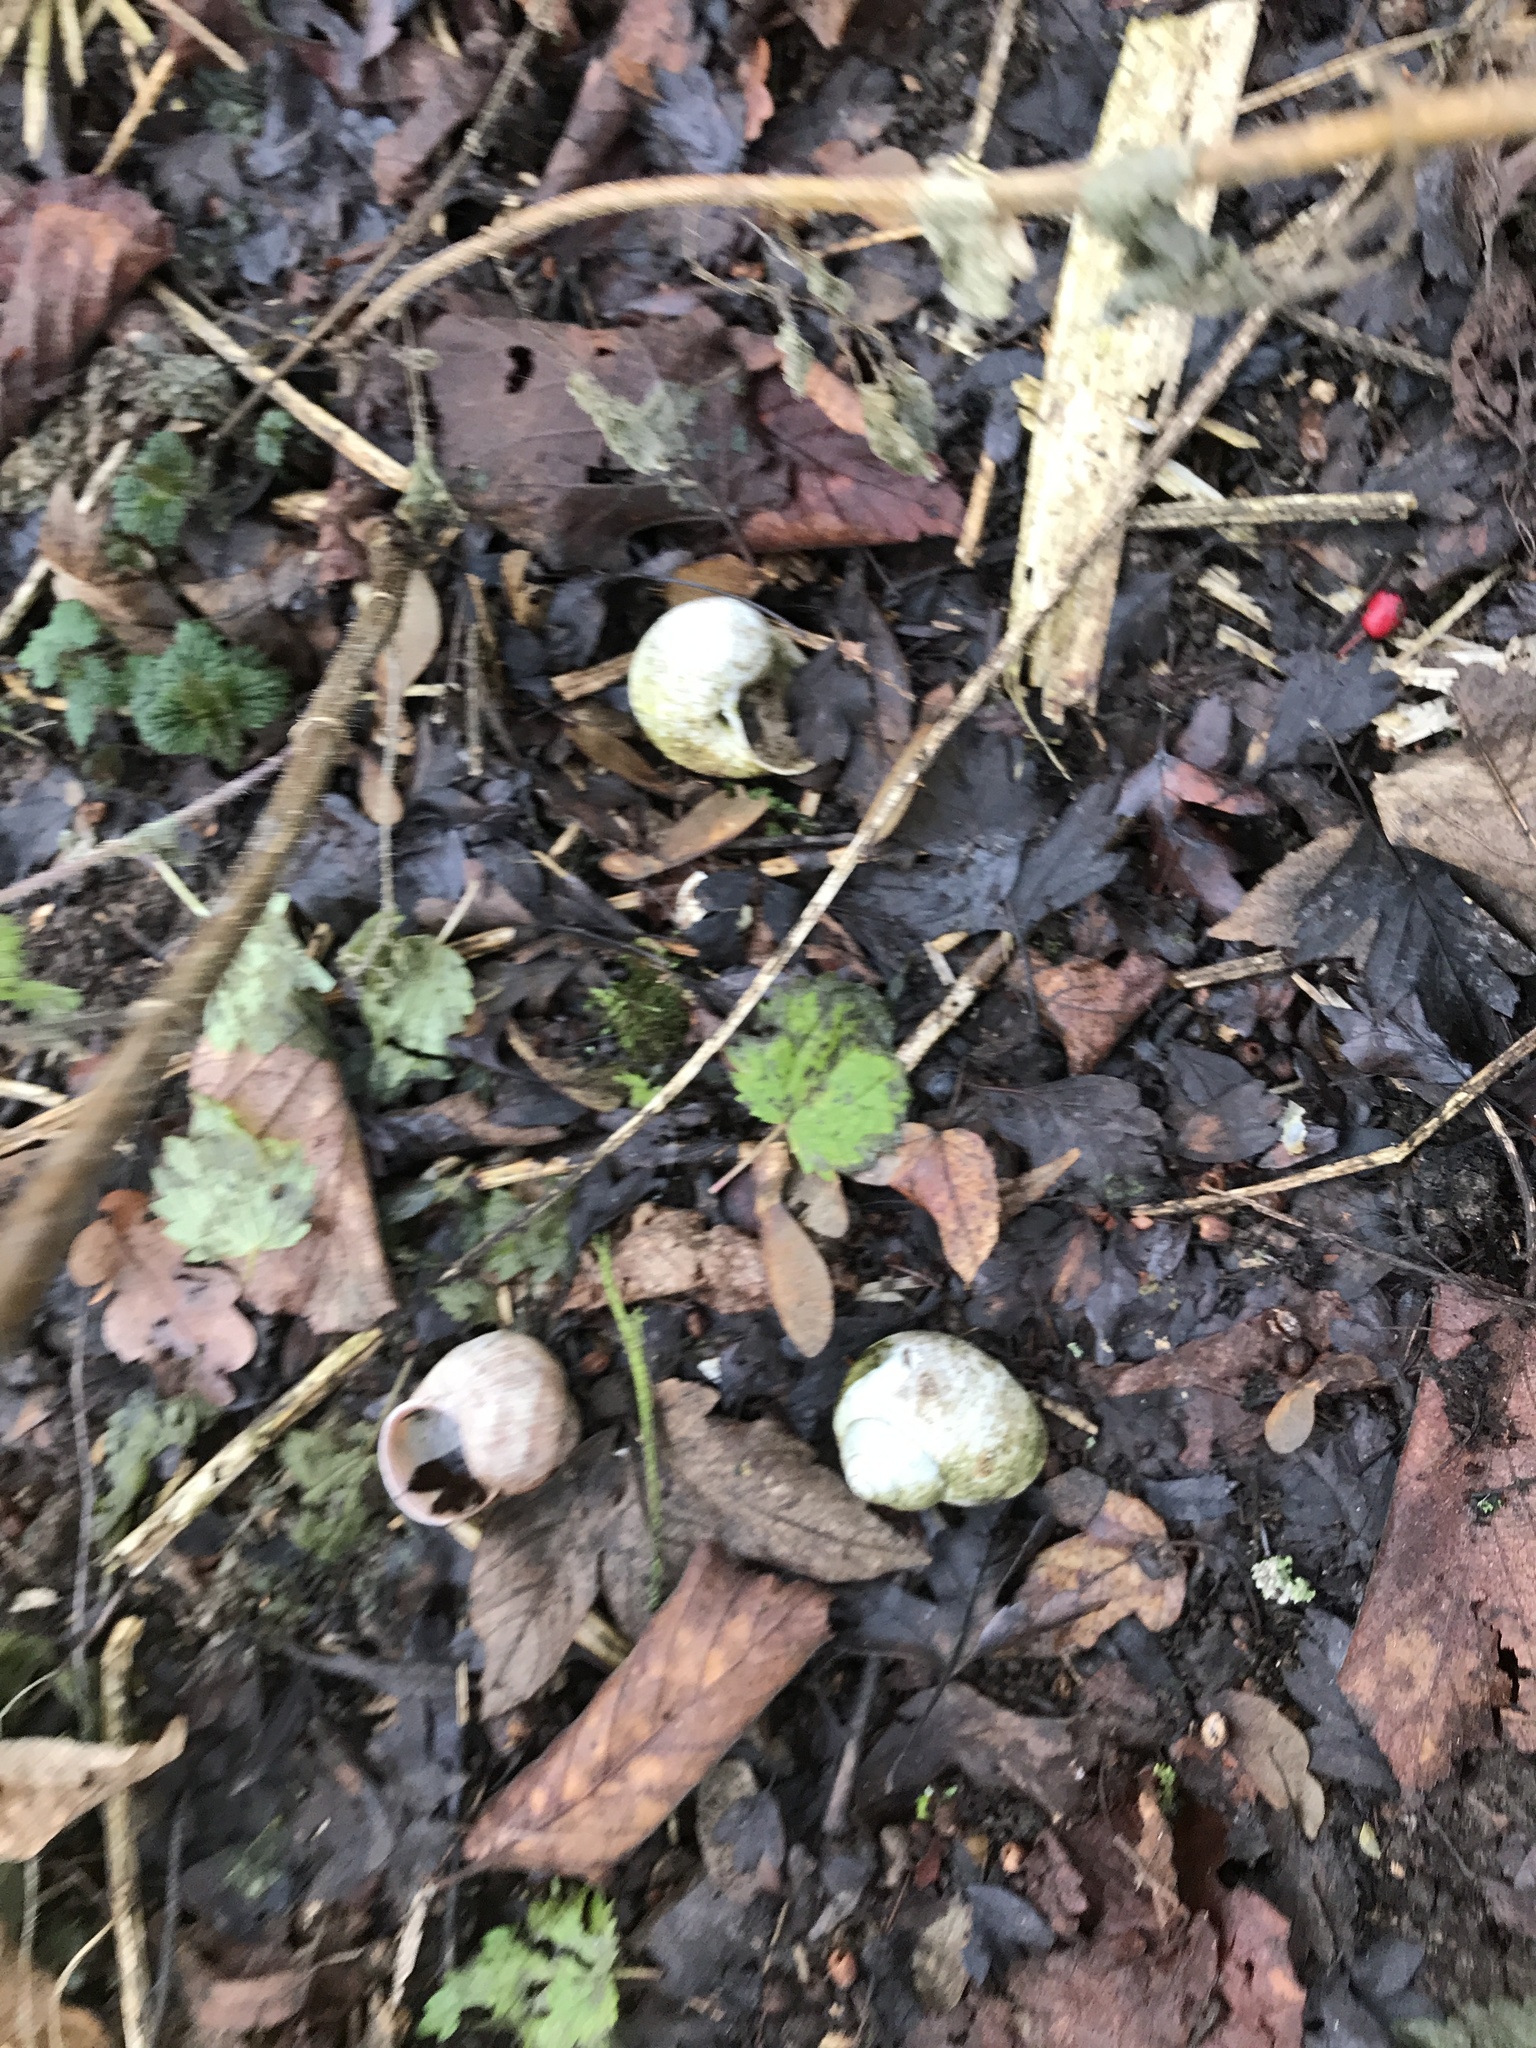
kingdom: Animalia
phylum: Mollusca
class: Gastropoda
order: Stylommatophora
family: Helicidae
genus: Helix
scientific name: Helix pomatia
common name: Roman snail
